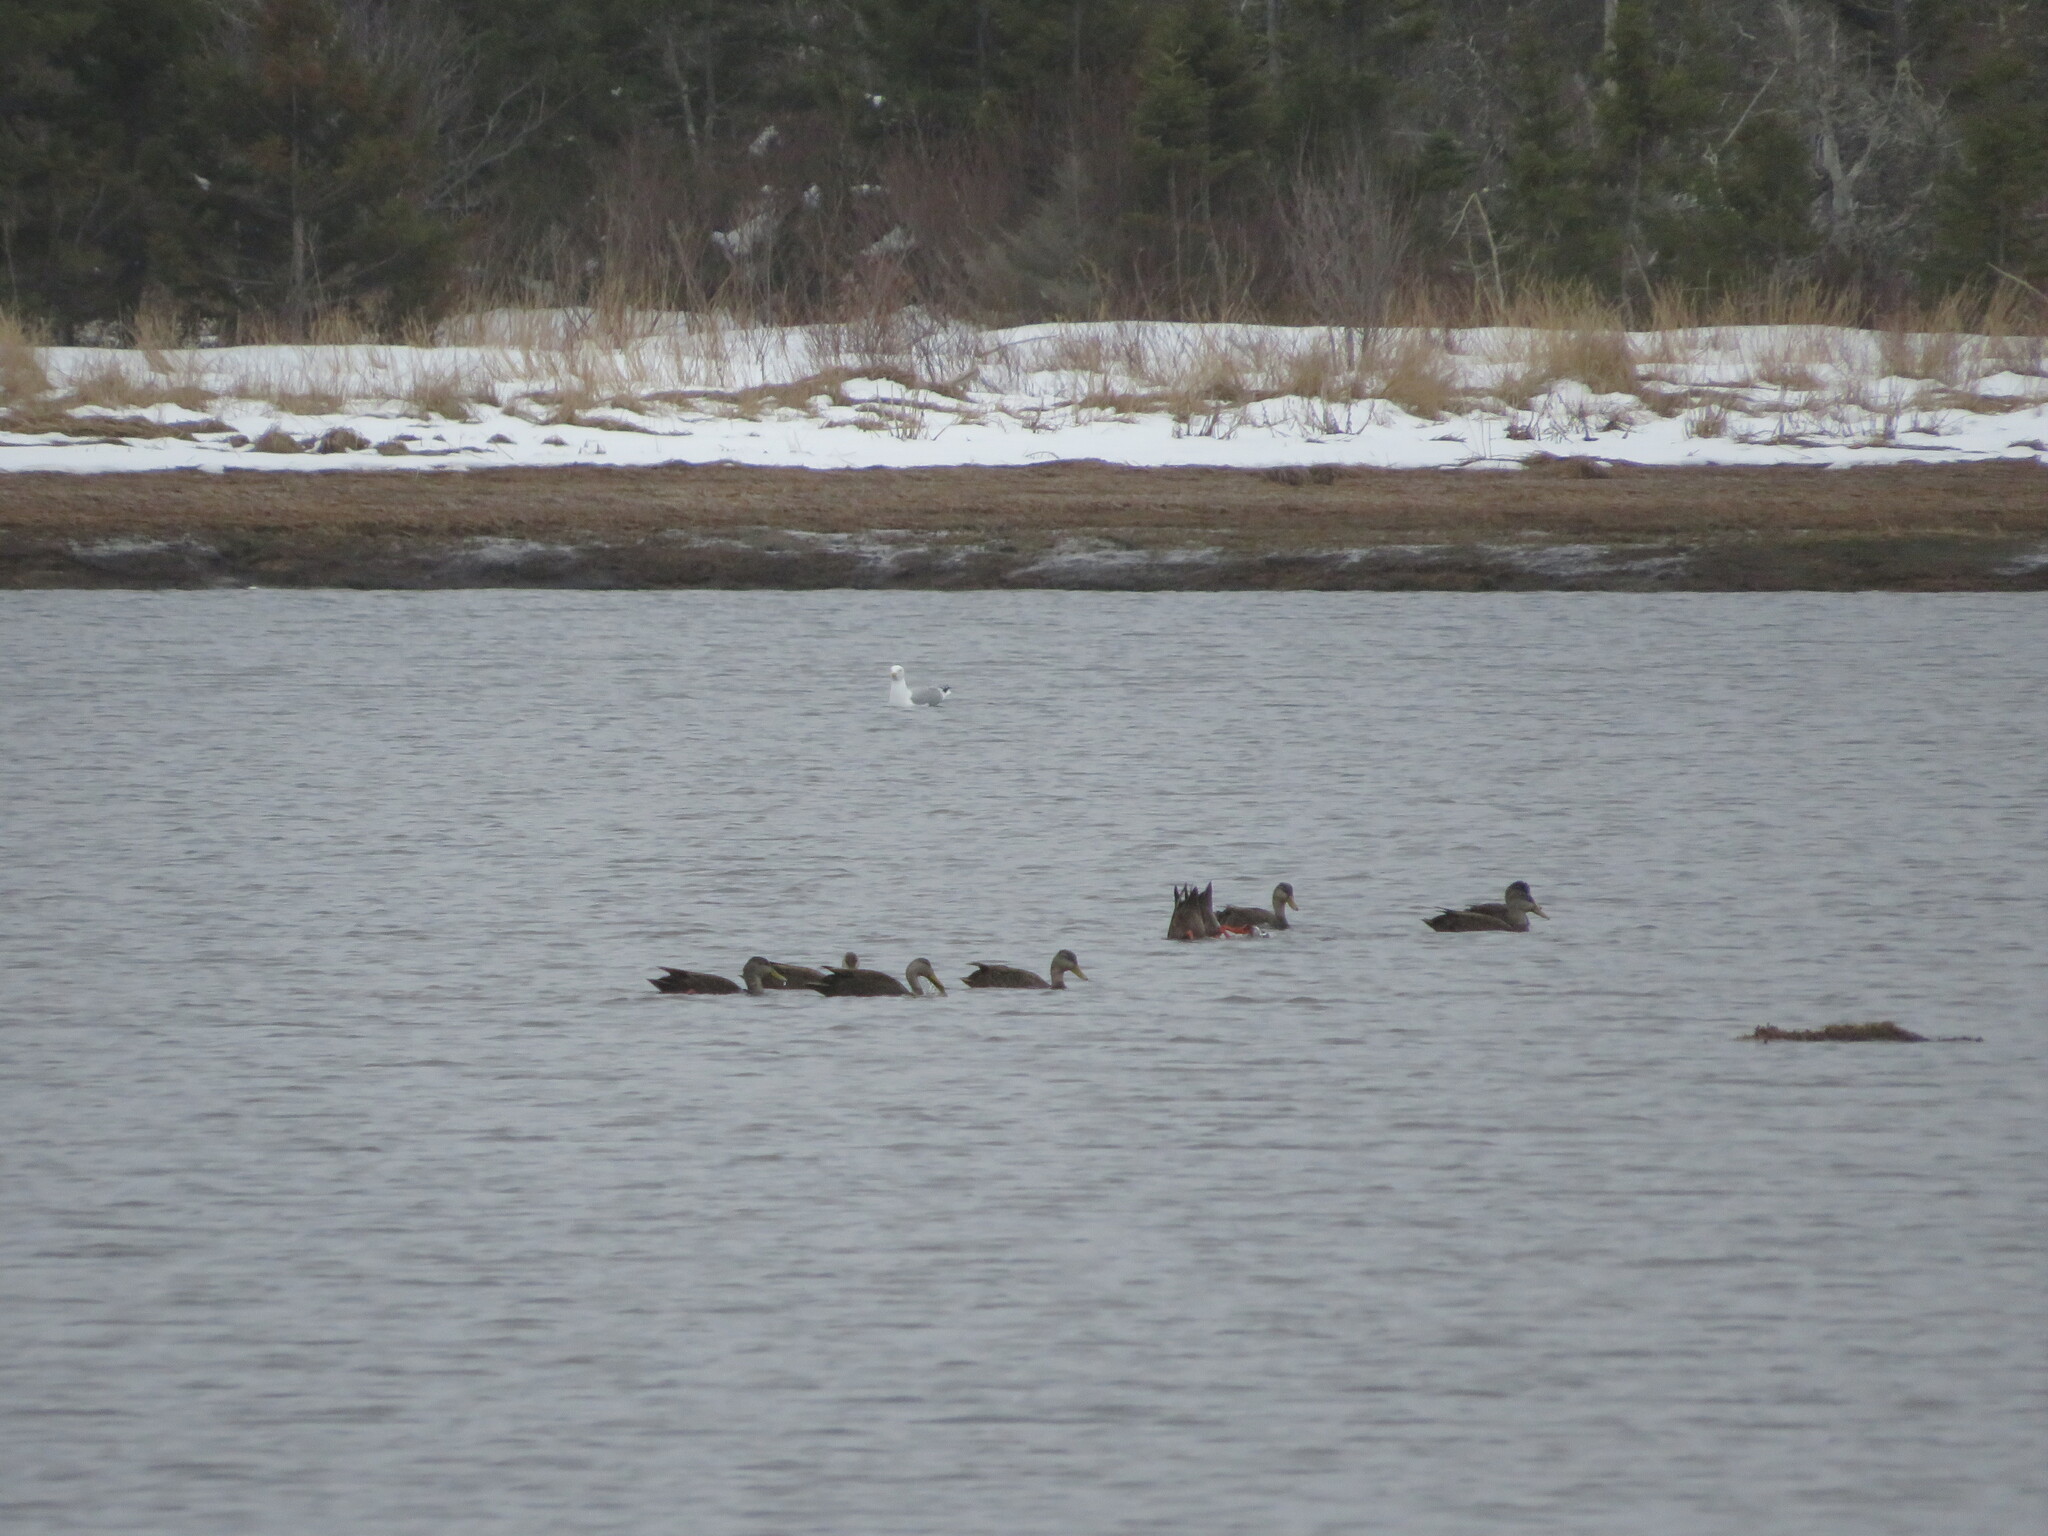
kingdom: Animalia
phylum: Chordata
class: Aves
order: Anseriformes
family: Anatidae
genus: Anas
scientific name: Anas rubripes
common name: American black duck
